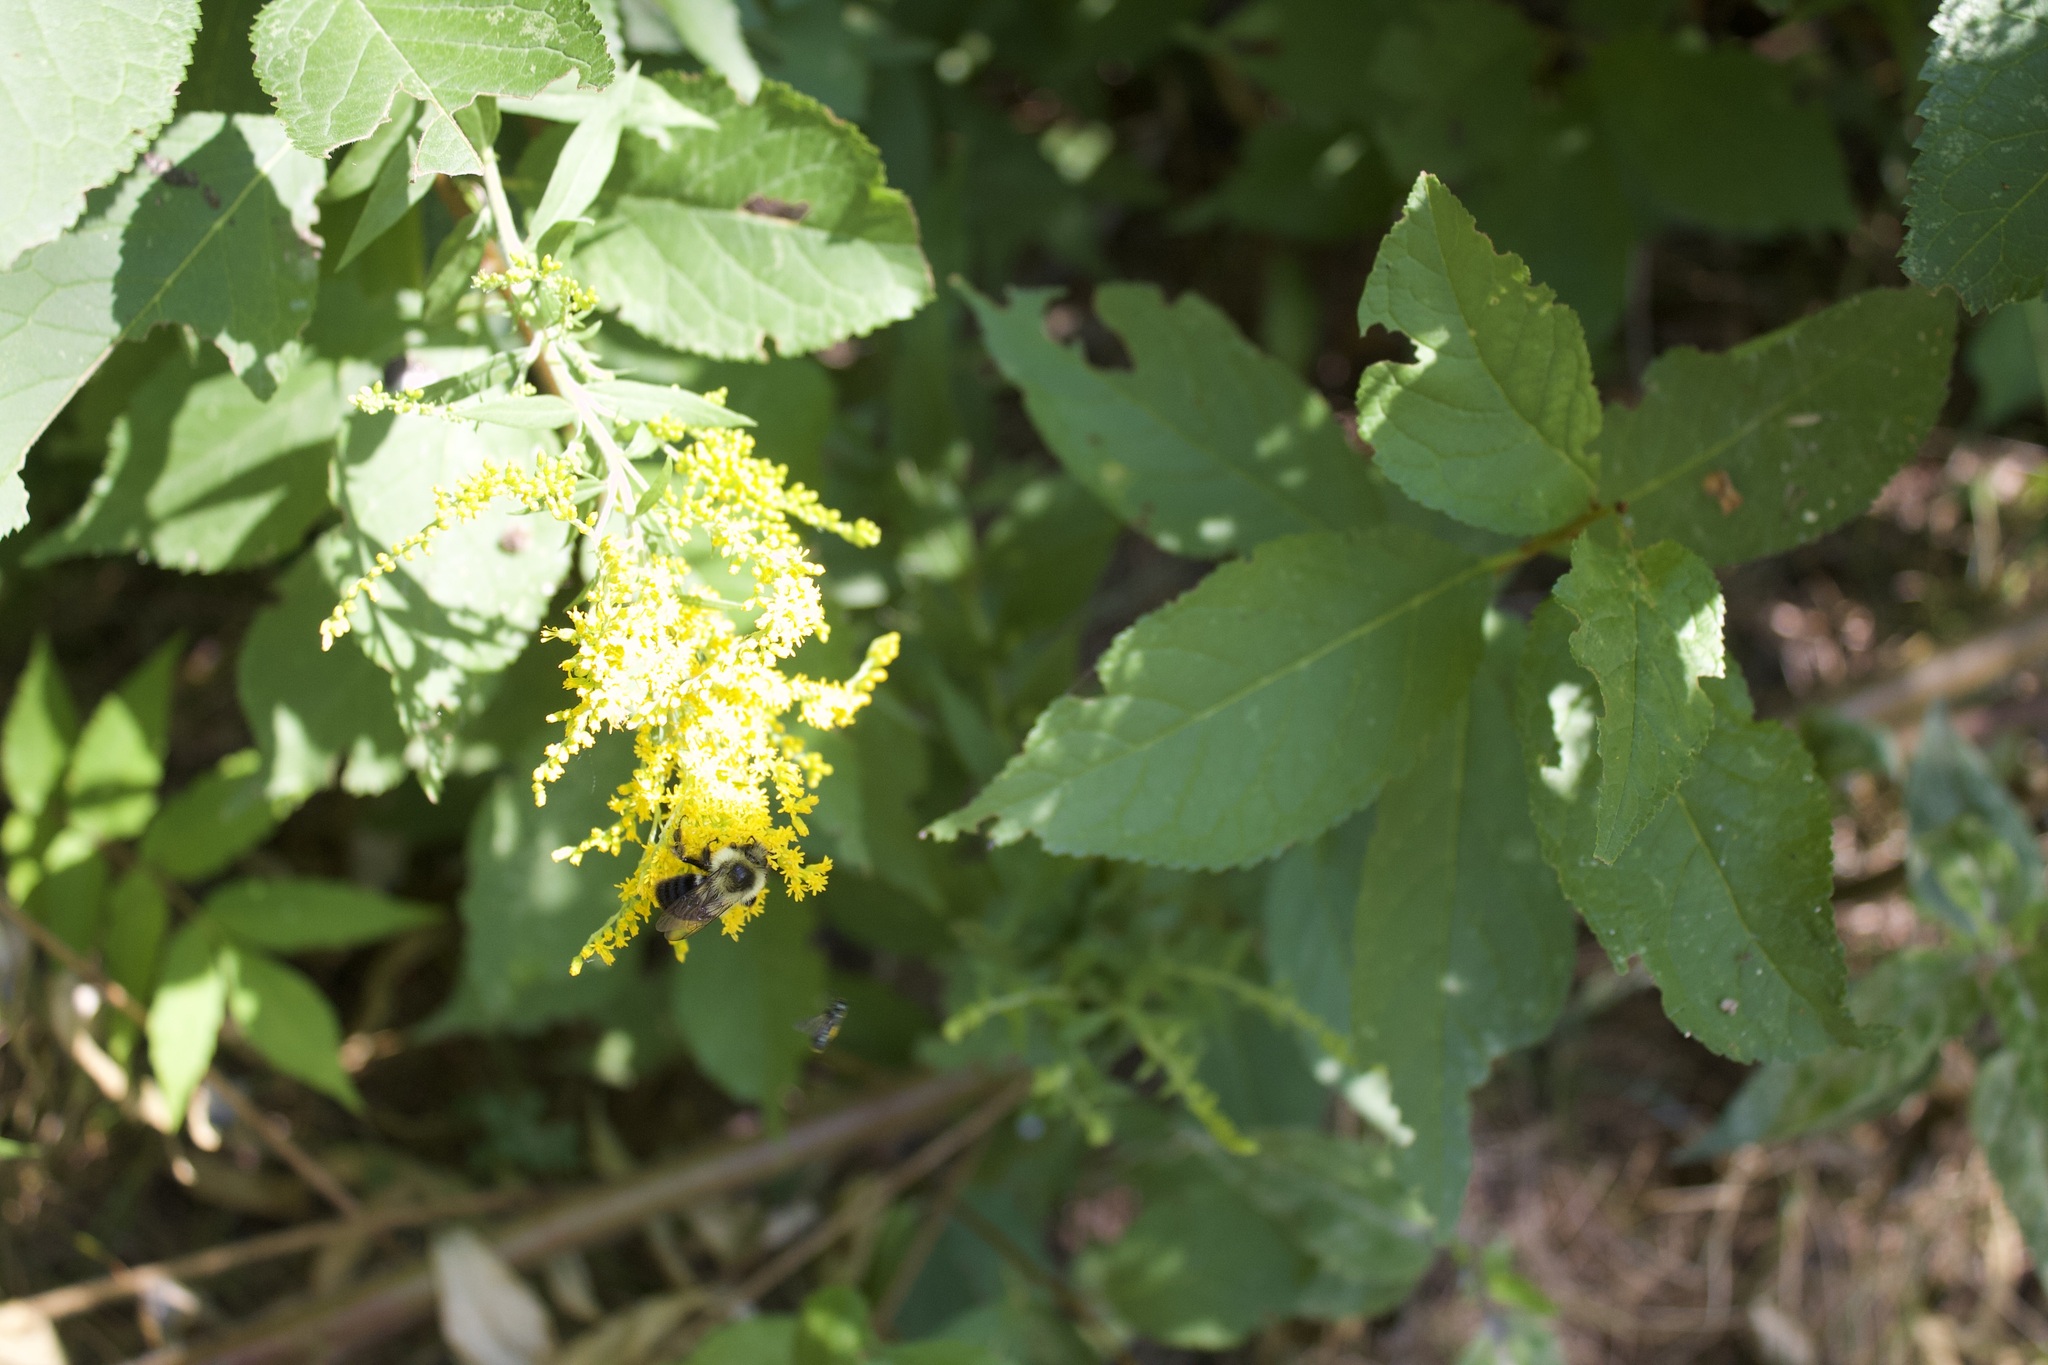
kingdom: Animalia
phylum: Arthropoda
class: Insecta
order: Hymenoptera
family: Apidae
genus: Bombus
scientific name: Bombus impatiens
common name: Common eastern bumble bee
